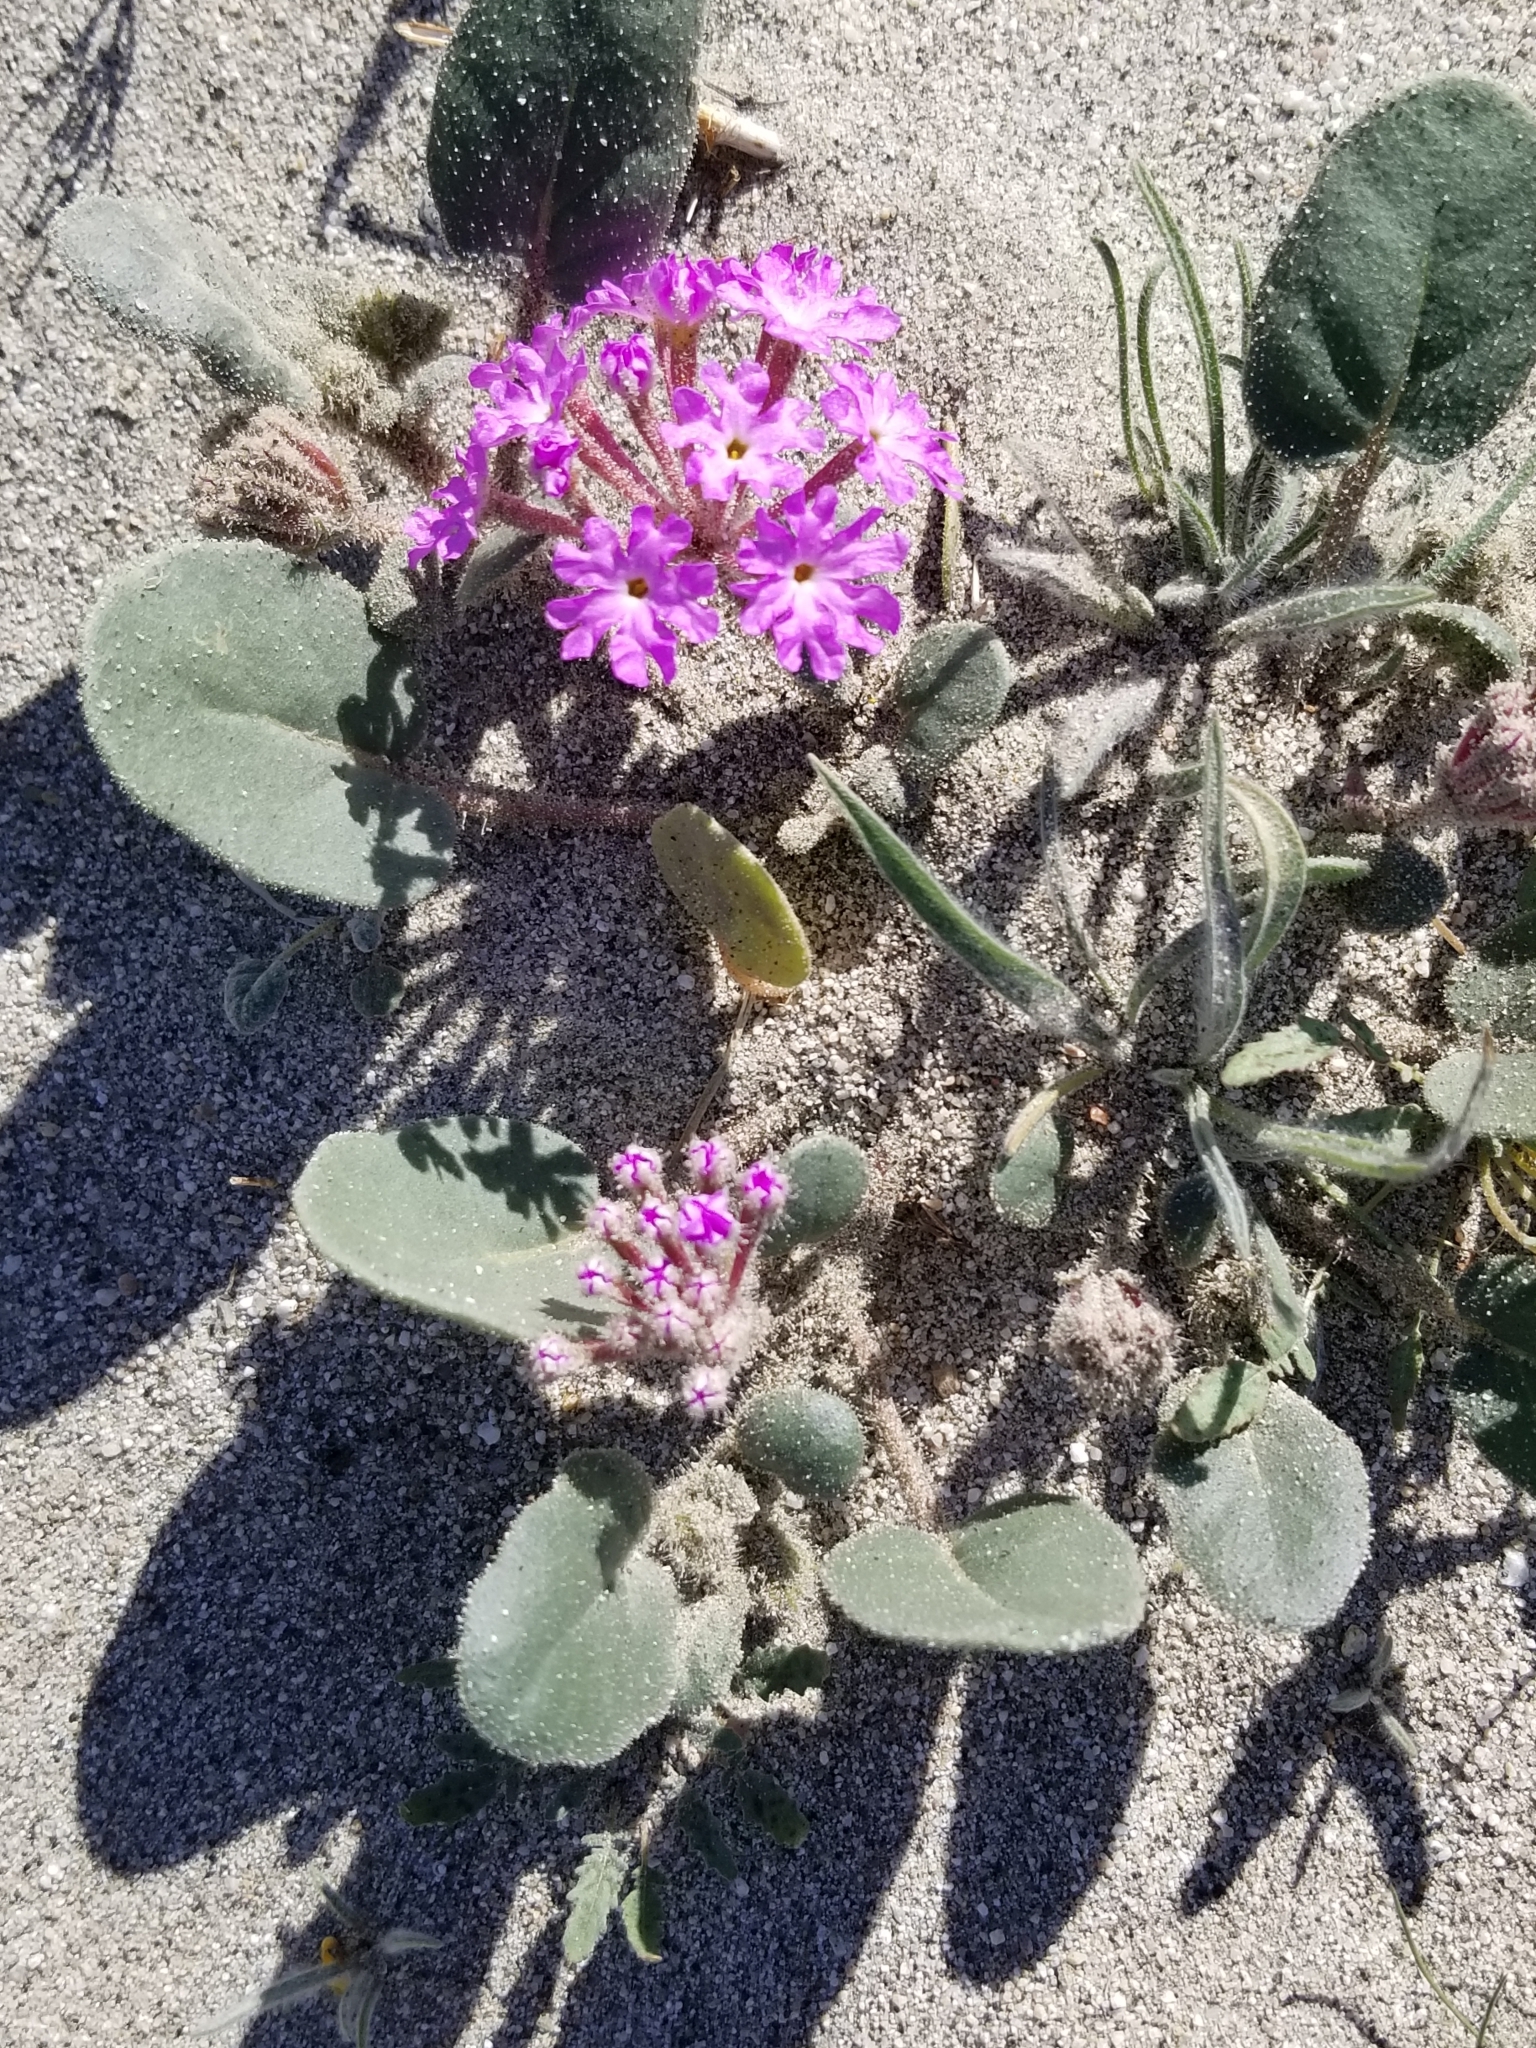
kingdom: Plantae
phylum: Tracheophyta
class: Magnoliopsida
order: Caryophyllales
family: Nyctaginaceae
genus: Abronia
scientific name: Abronia villosa
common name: Desert sand-verbena
